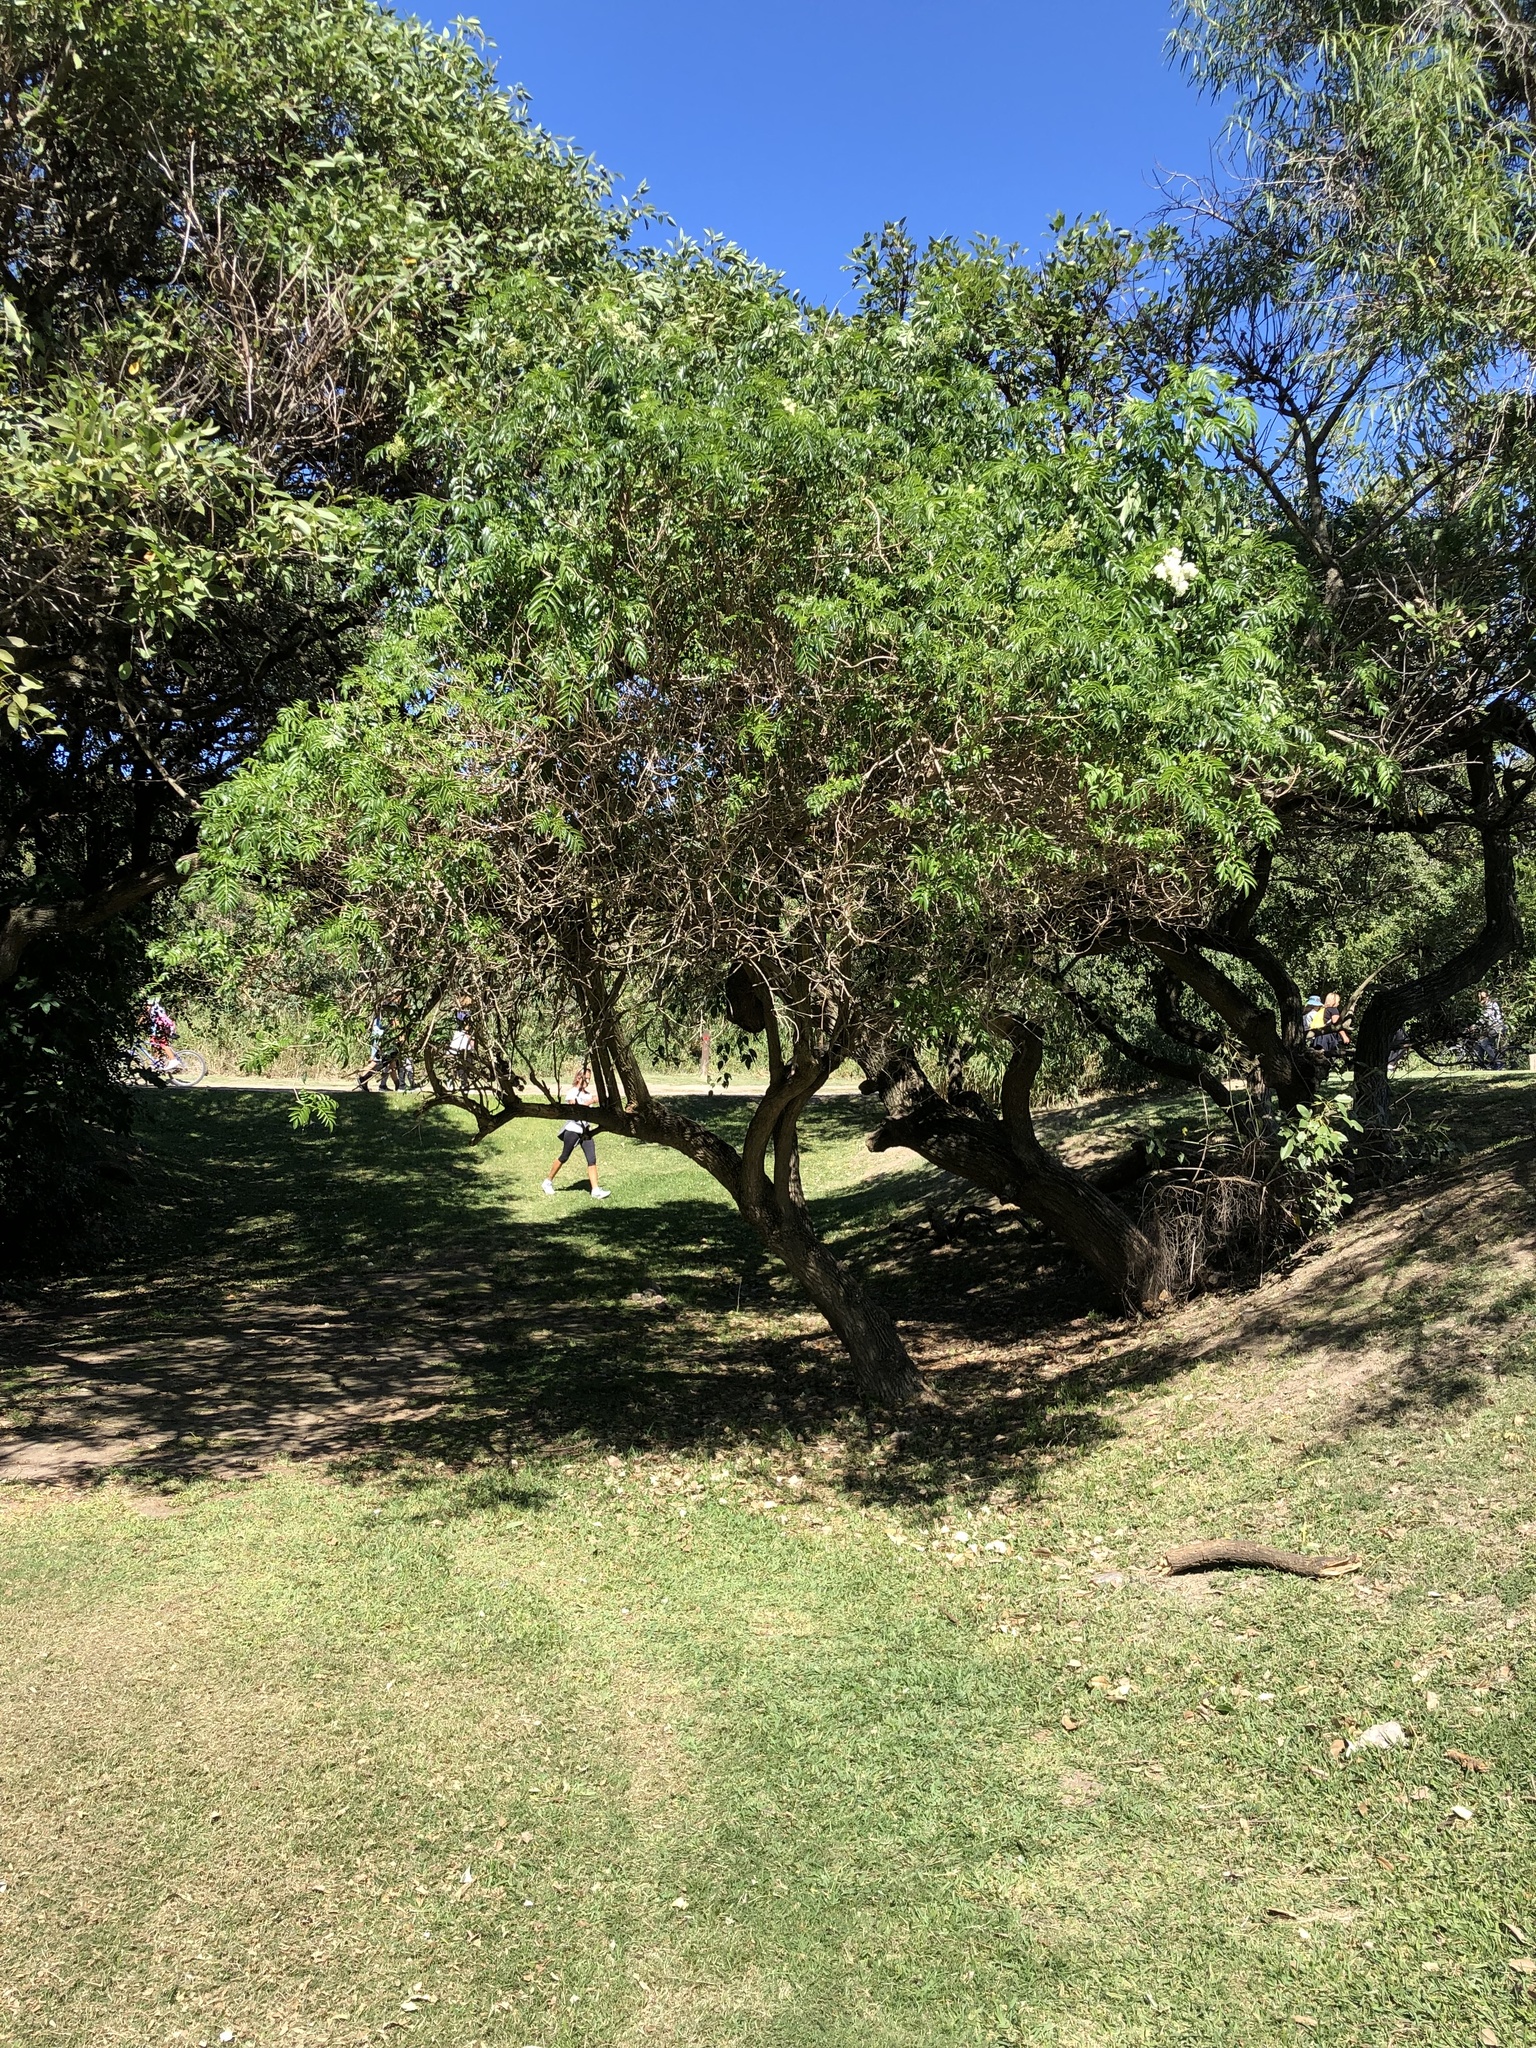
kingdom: Plantae
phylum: Tracheophyta
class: Magnoliopsida
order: Dipsacales
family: Viburnaceae
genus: Sambucus
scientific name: Sambucus australis
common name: Southern elder
